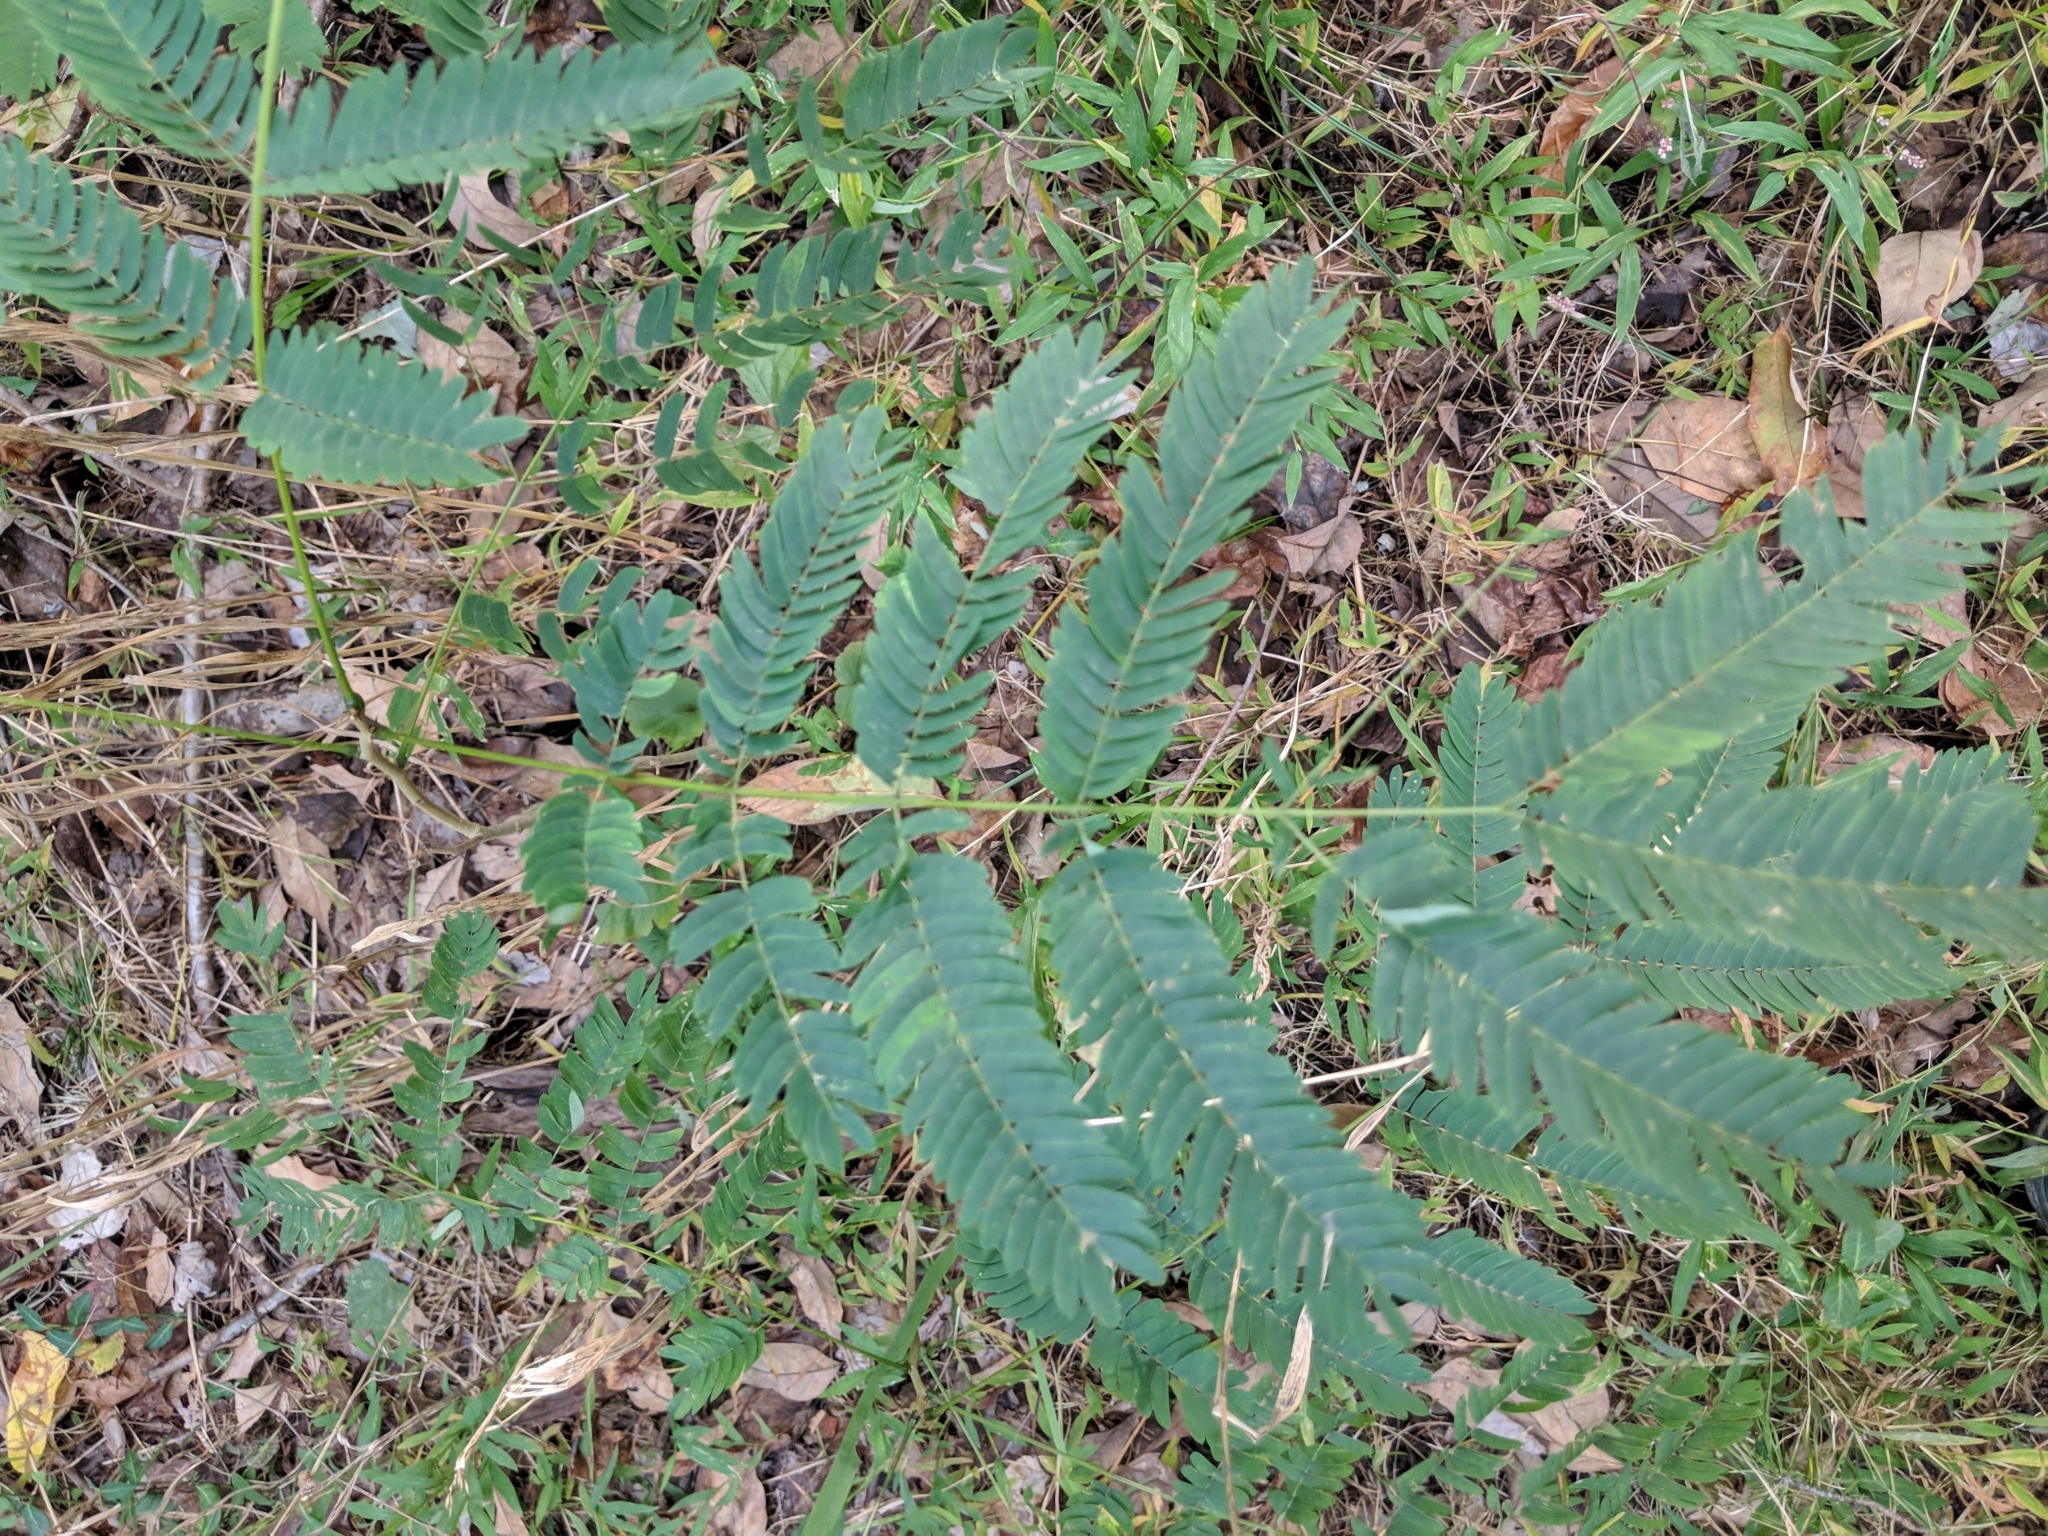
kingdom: Plantae
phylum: Tracheophyta
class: Magnoliopsida
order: Fabales
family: Fabaceae
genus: Albizia
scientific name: Albizia julibrissin
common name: Silktree
